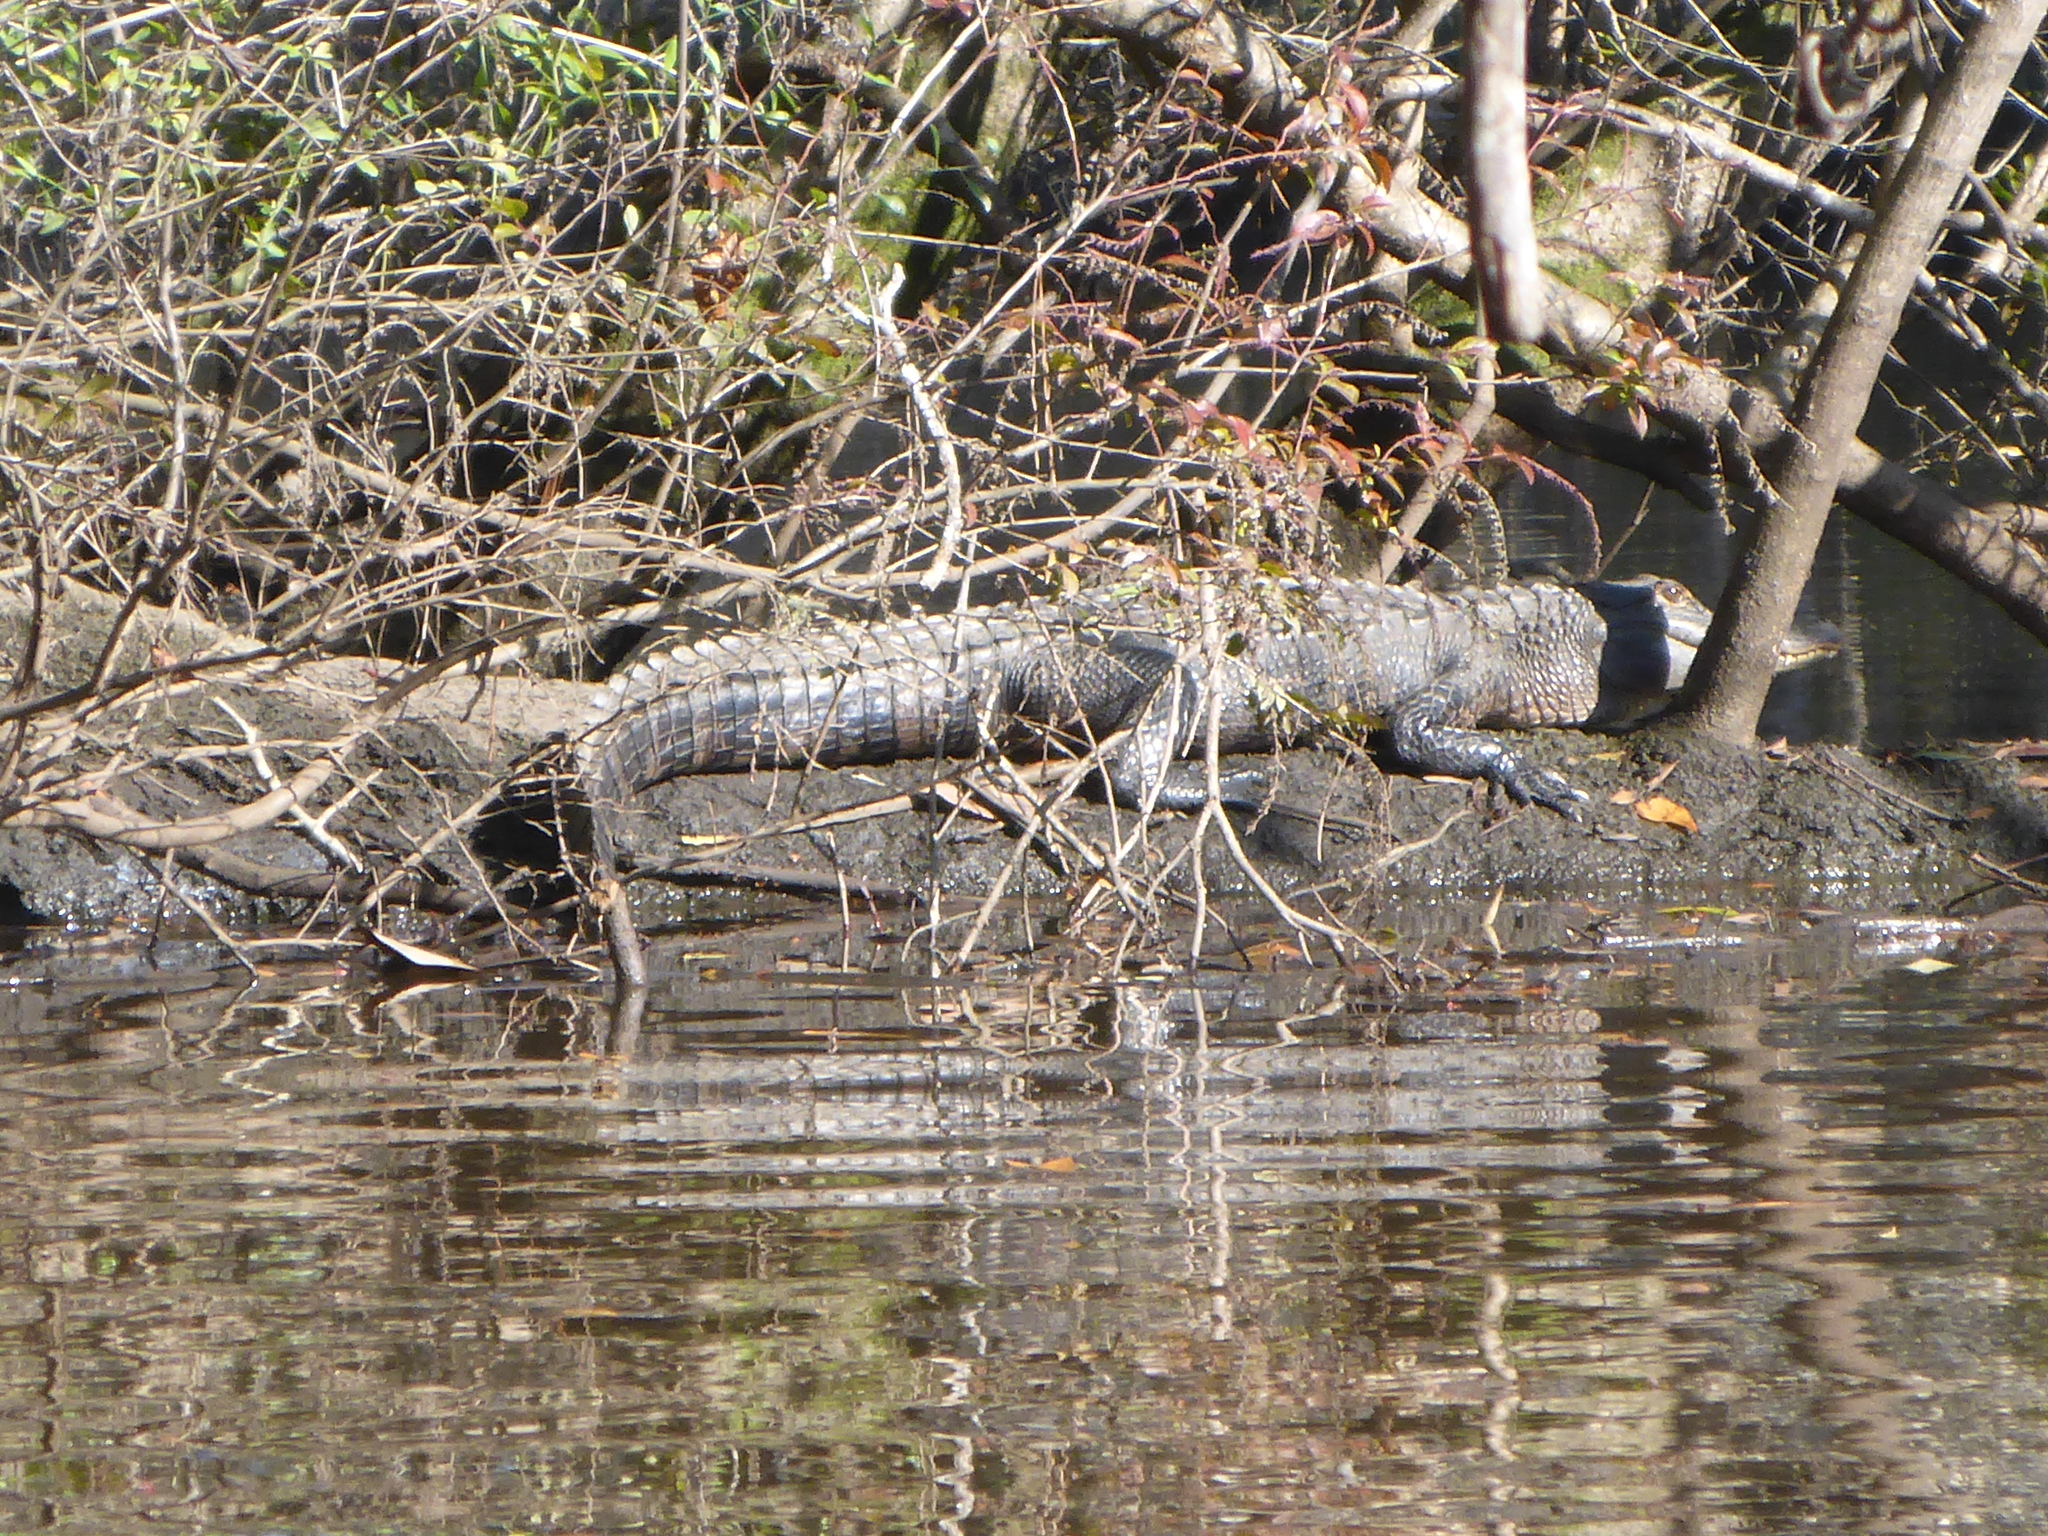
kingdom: Animalia
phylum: Chordata
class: Crocodylia
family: Alligatoridae
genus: Alligator
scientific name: Alligator mississippiensis
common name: American alligator
